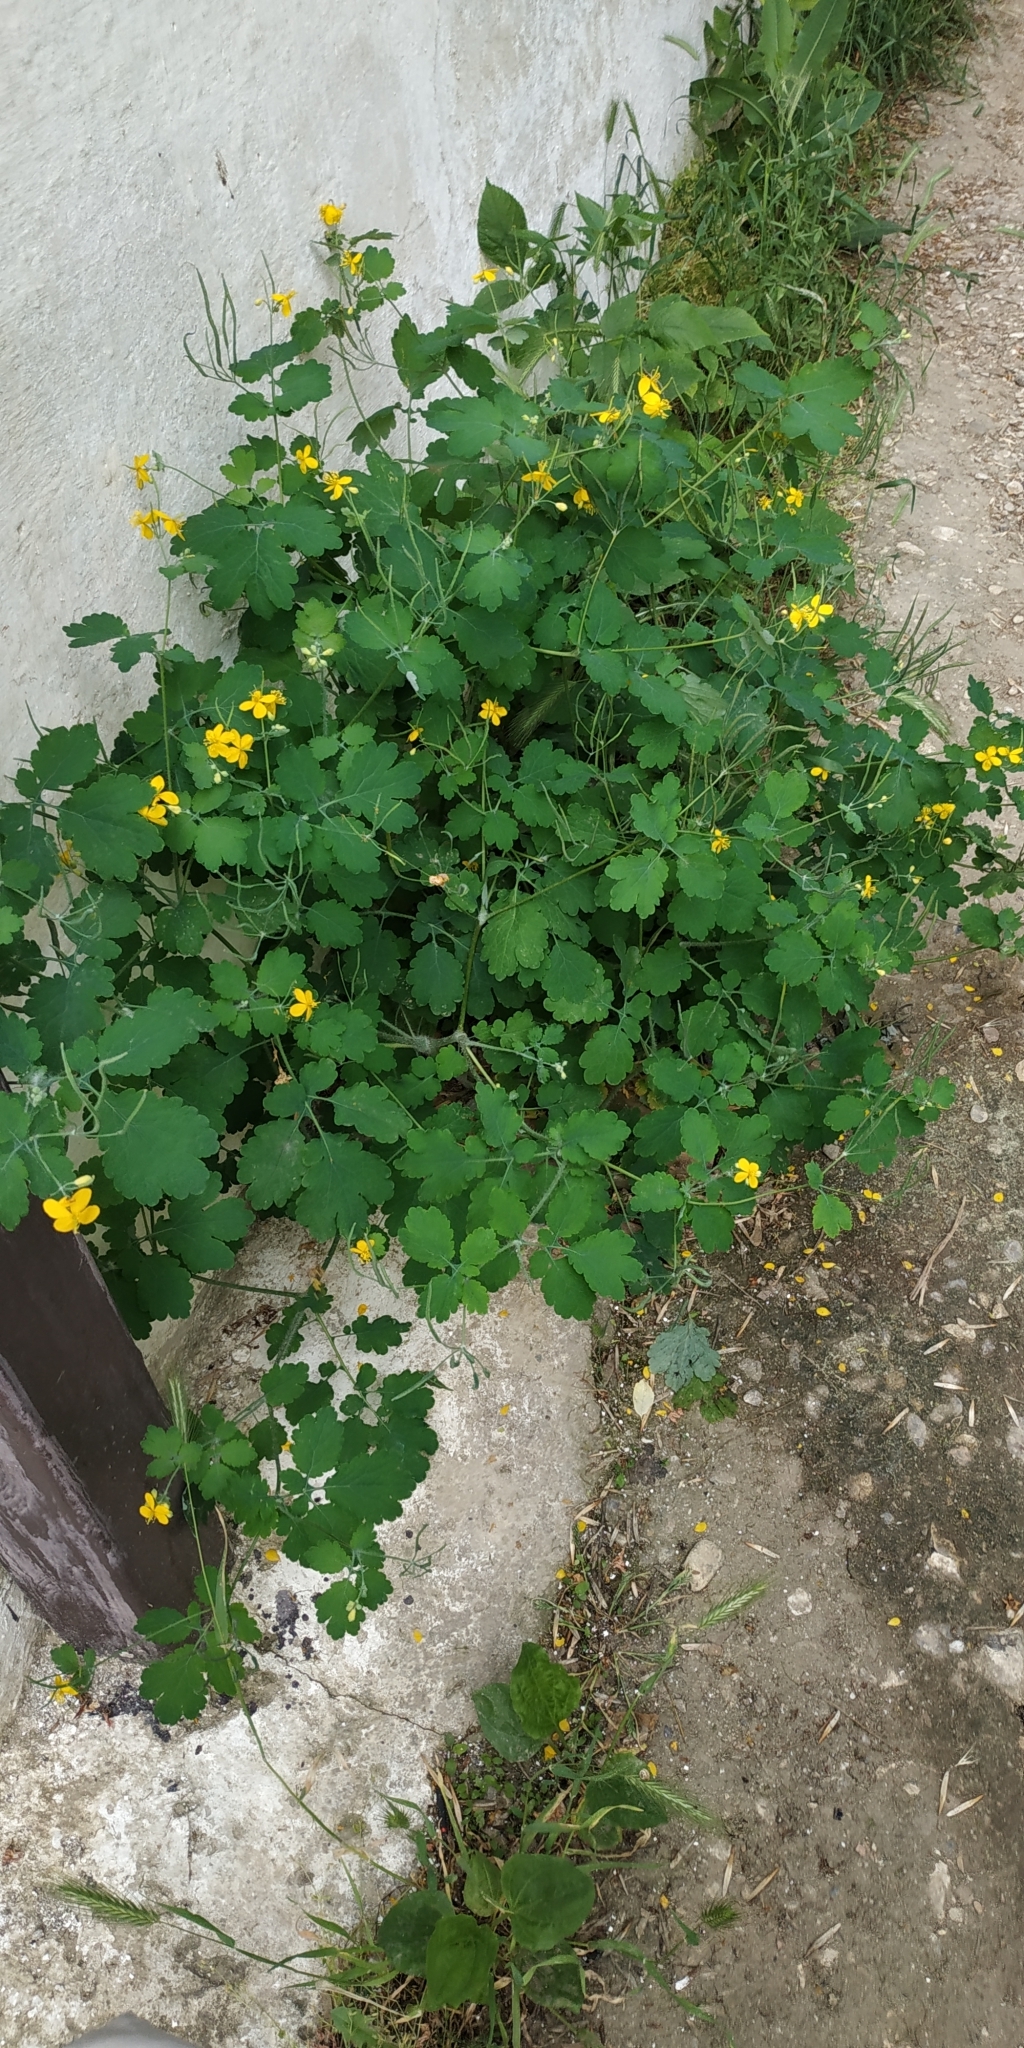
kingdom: Plantae
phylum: Tracheophyta
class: Magnoliopsida
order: Ranunculales
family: Papaveraceae
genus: Chelidonium
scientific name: Chelidonium majus
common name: Greater celandine
